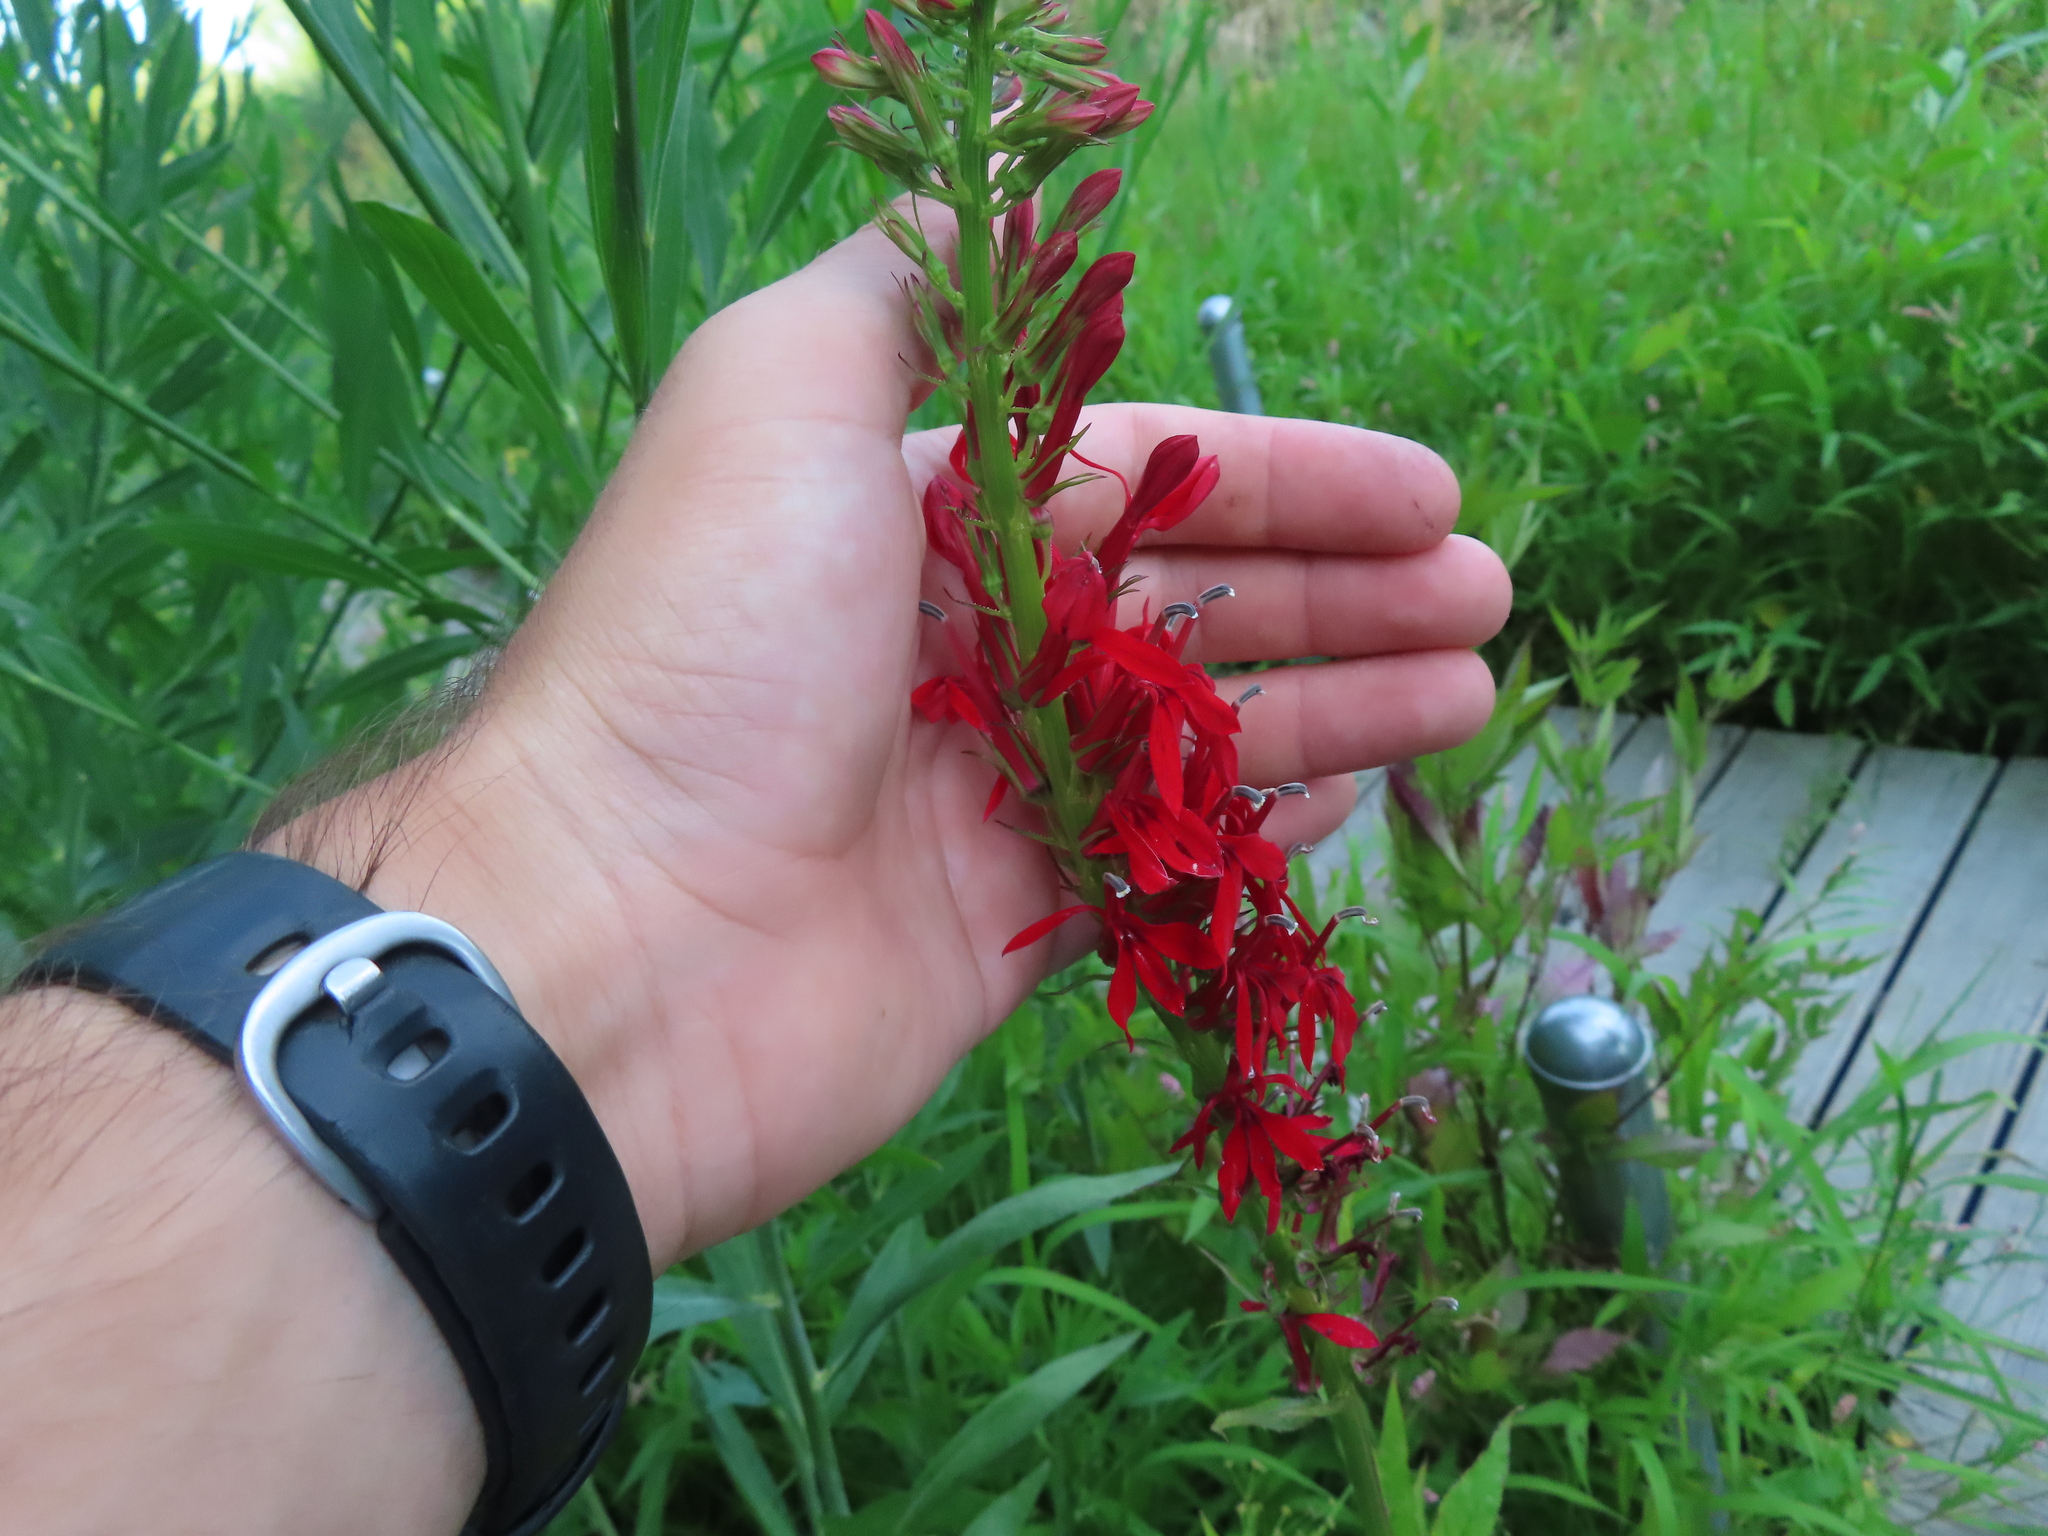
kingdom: Plantae
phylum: Tracheophyta
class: Magnoliopsida
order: Asterales
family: Campanulaceae
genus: Lobelia
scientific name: Lobelia cardinalis
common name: Cardinal flower
